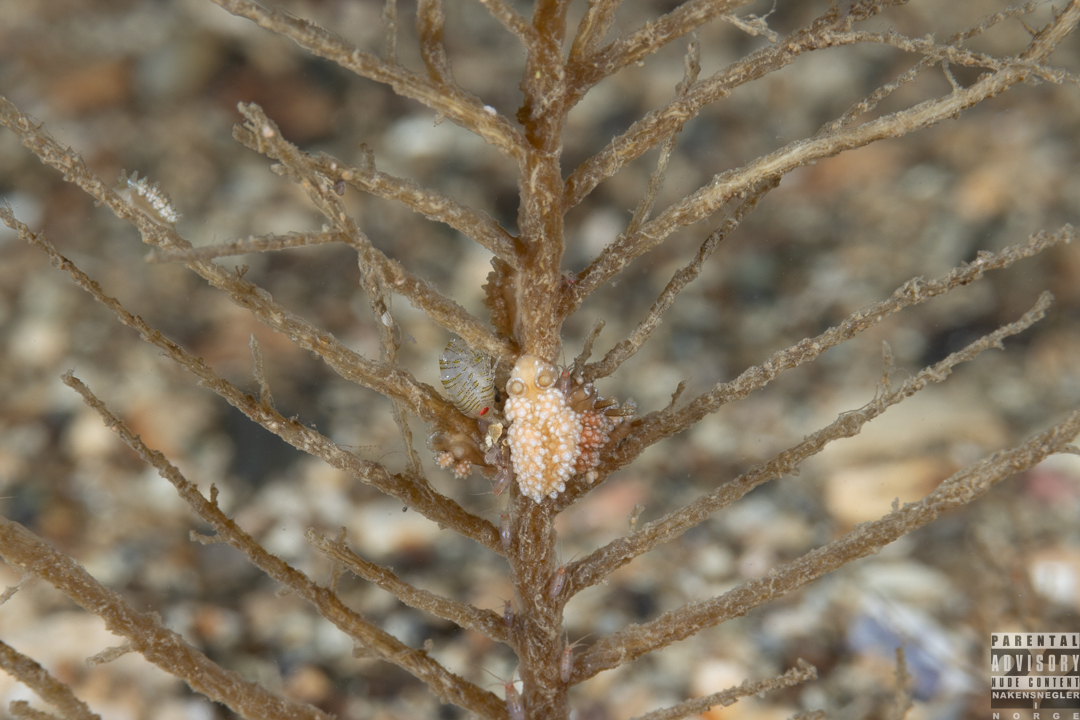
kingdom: Animalia
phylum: Mollusca
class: Gastropoda
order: Nudibranchia
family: Dotidae
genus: Doto
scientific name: Doto fragilis
